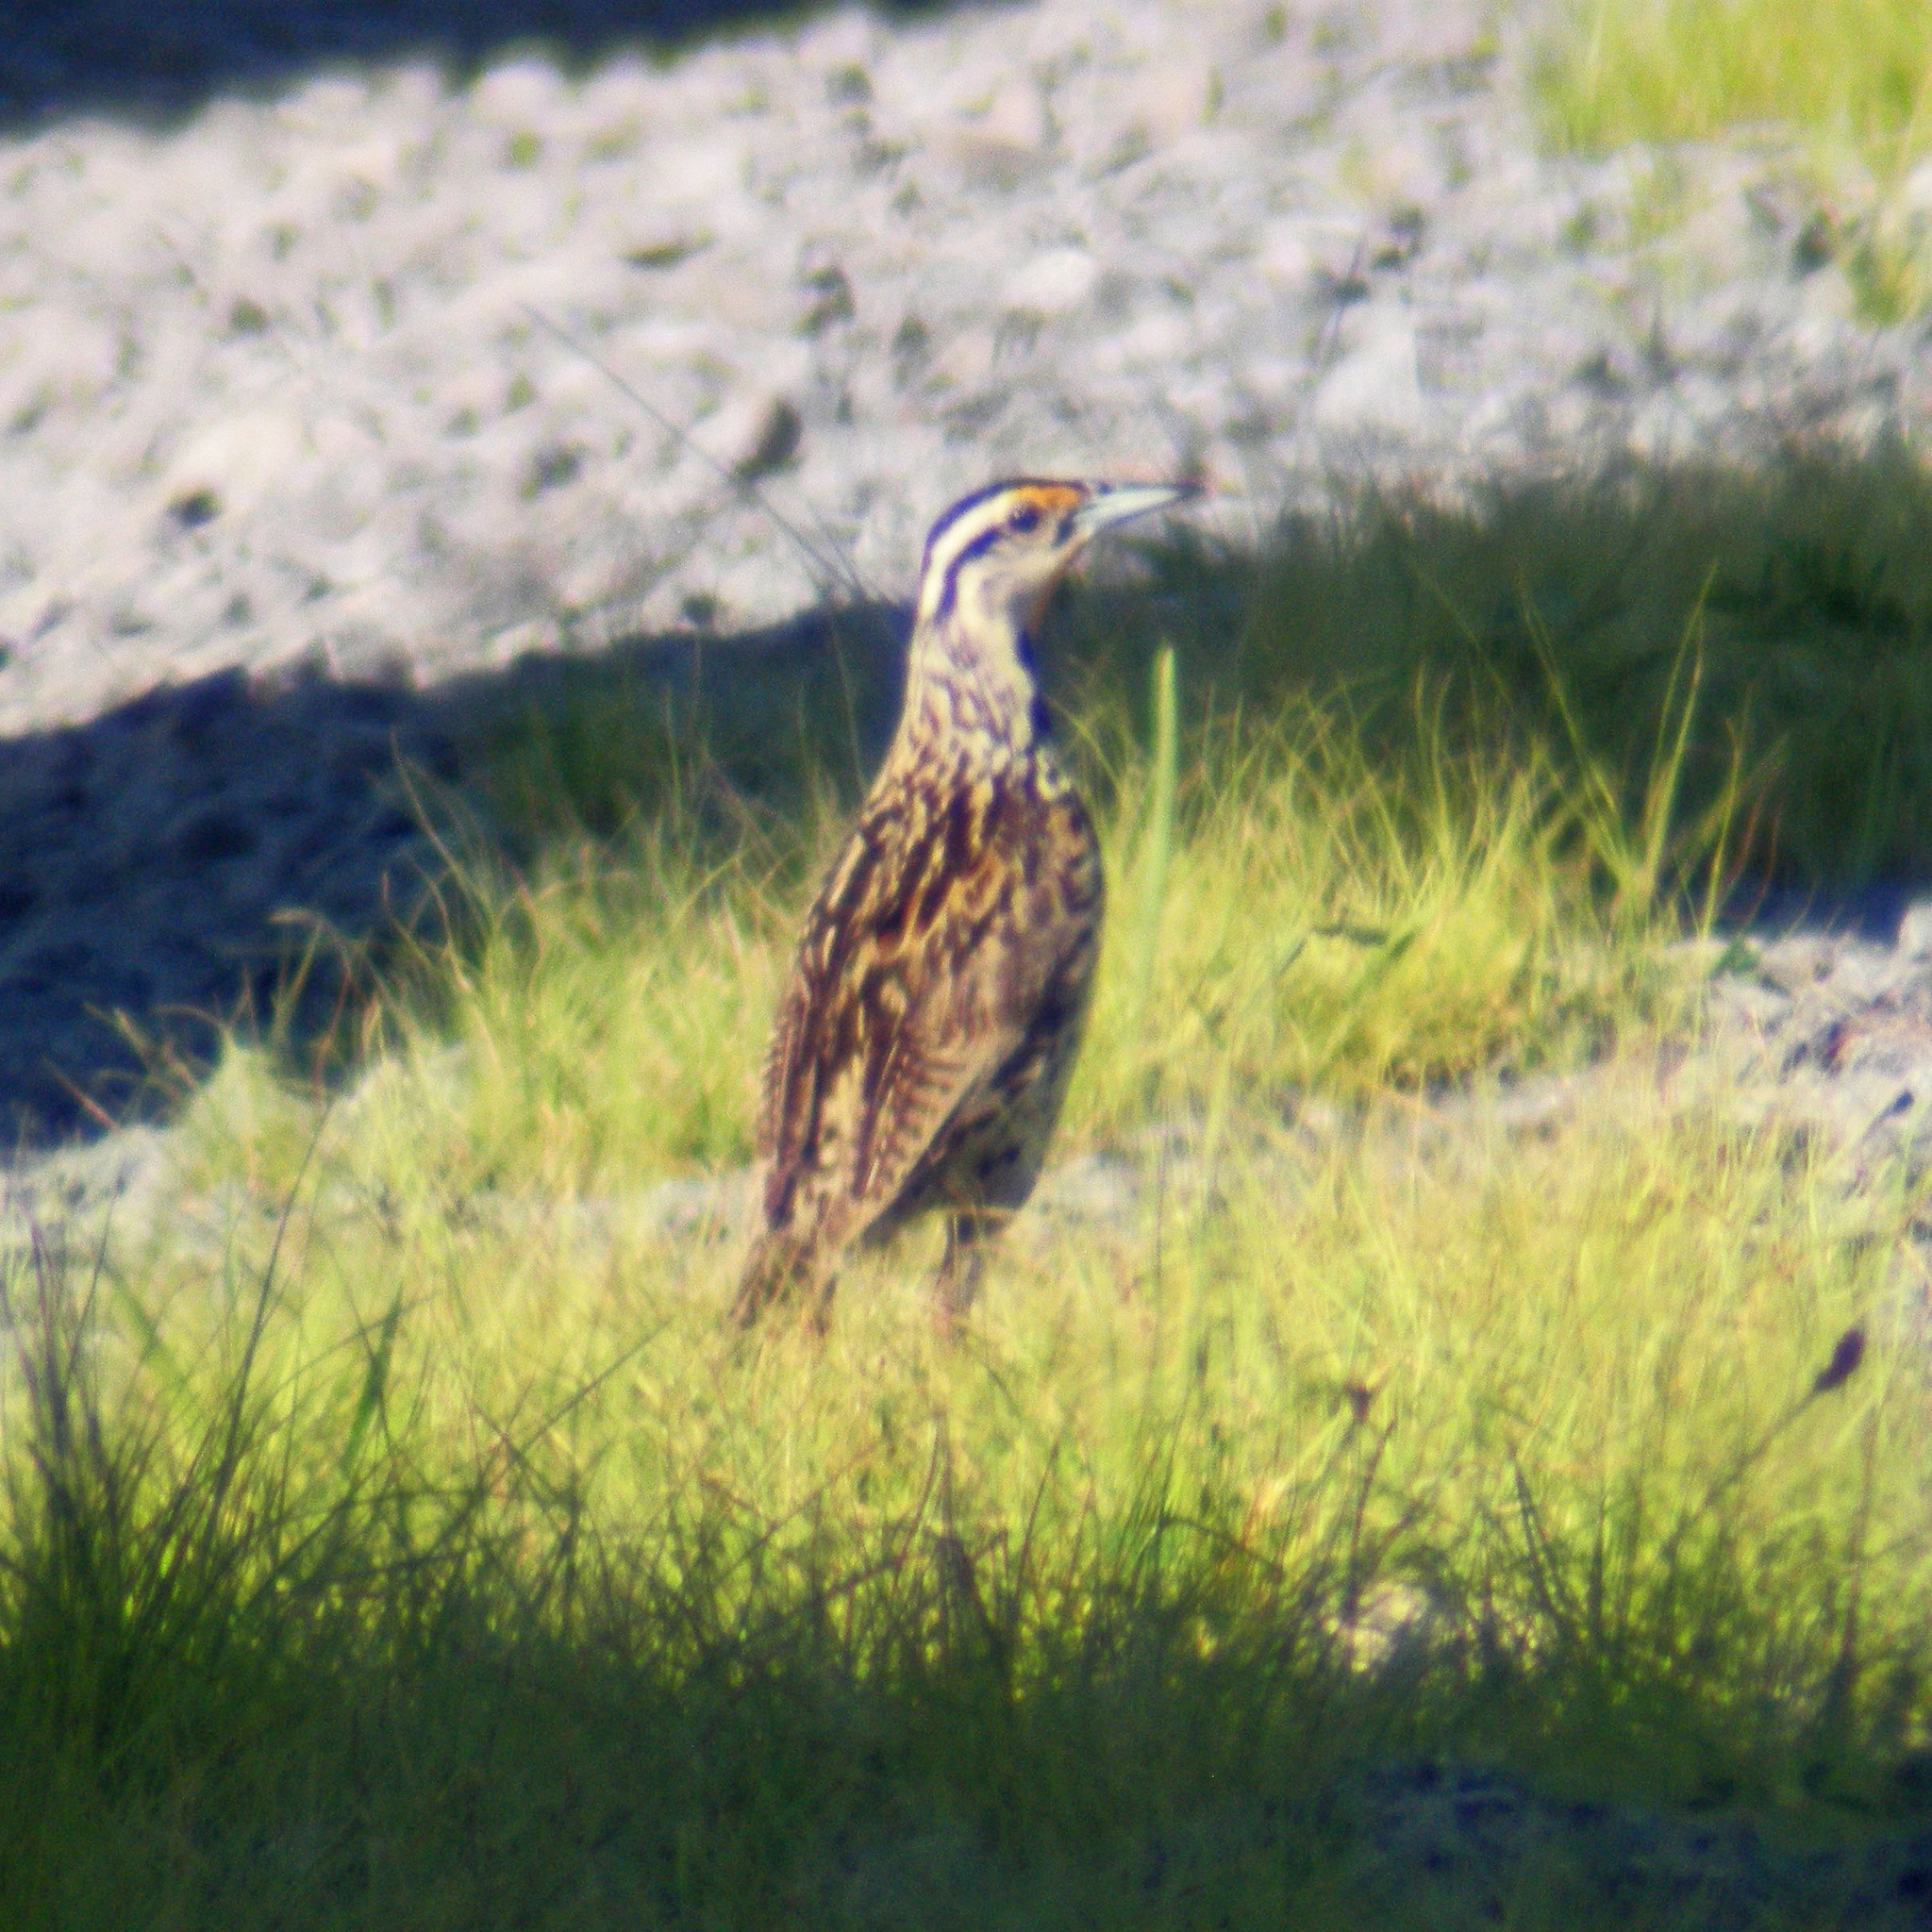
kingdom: Animalia
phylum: Chordata
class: Aves
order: Passeriformes
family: Icteridae
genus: Sturnella
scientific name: Sturnella magna
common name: Eastern meadowlark
